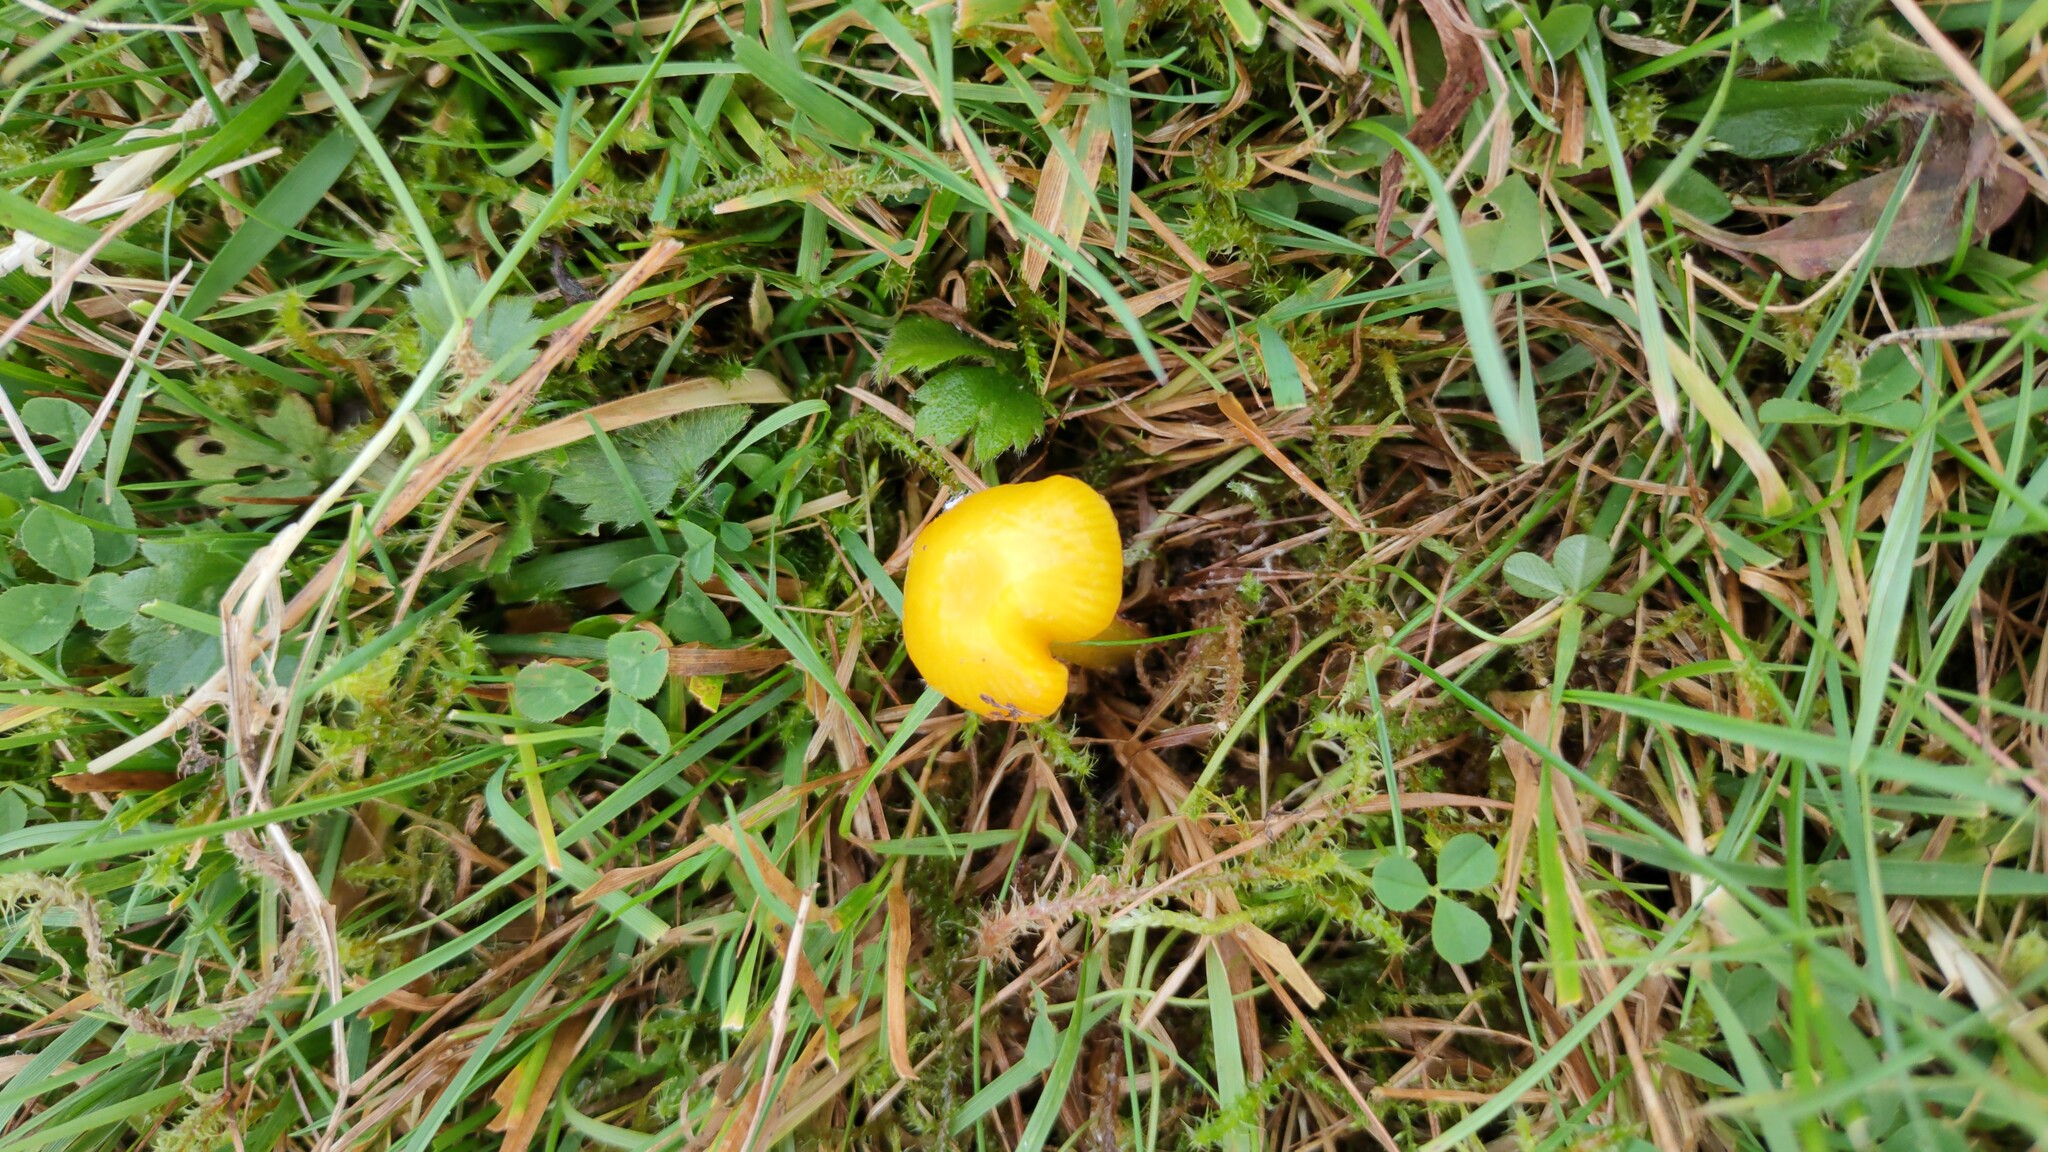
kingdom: Fungi
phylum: Basidiomycota
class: Agaricomycetes
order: Agaricales
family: Hygrophoraceae
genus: Hygrocybe
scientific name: Hygrocybe ceracea
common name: Butter waxcap
